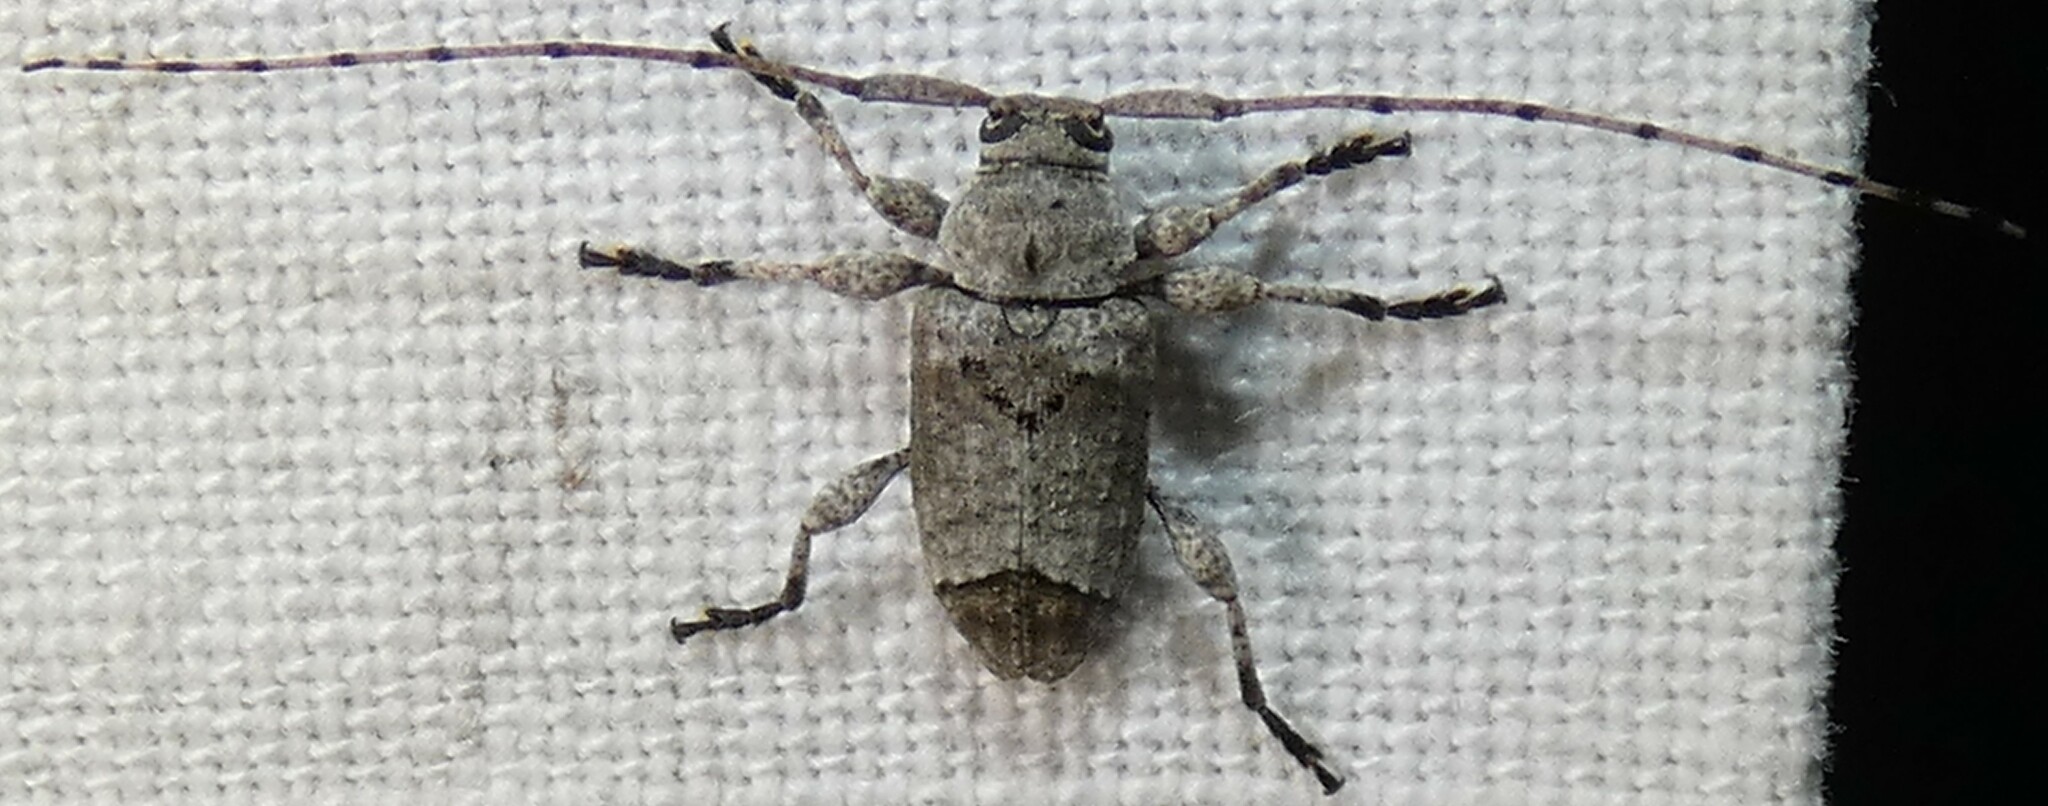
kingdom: Animalia
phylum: Arthropoda
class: Insecta
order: Coleoptera
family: Cerambycidae
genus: Sternidius
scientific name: Sternidius mimeticus
